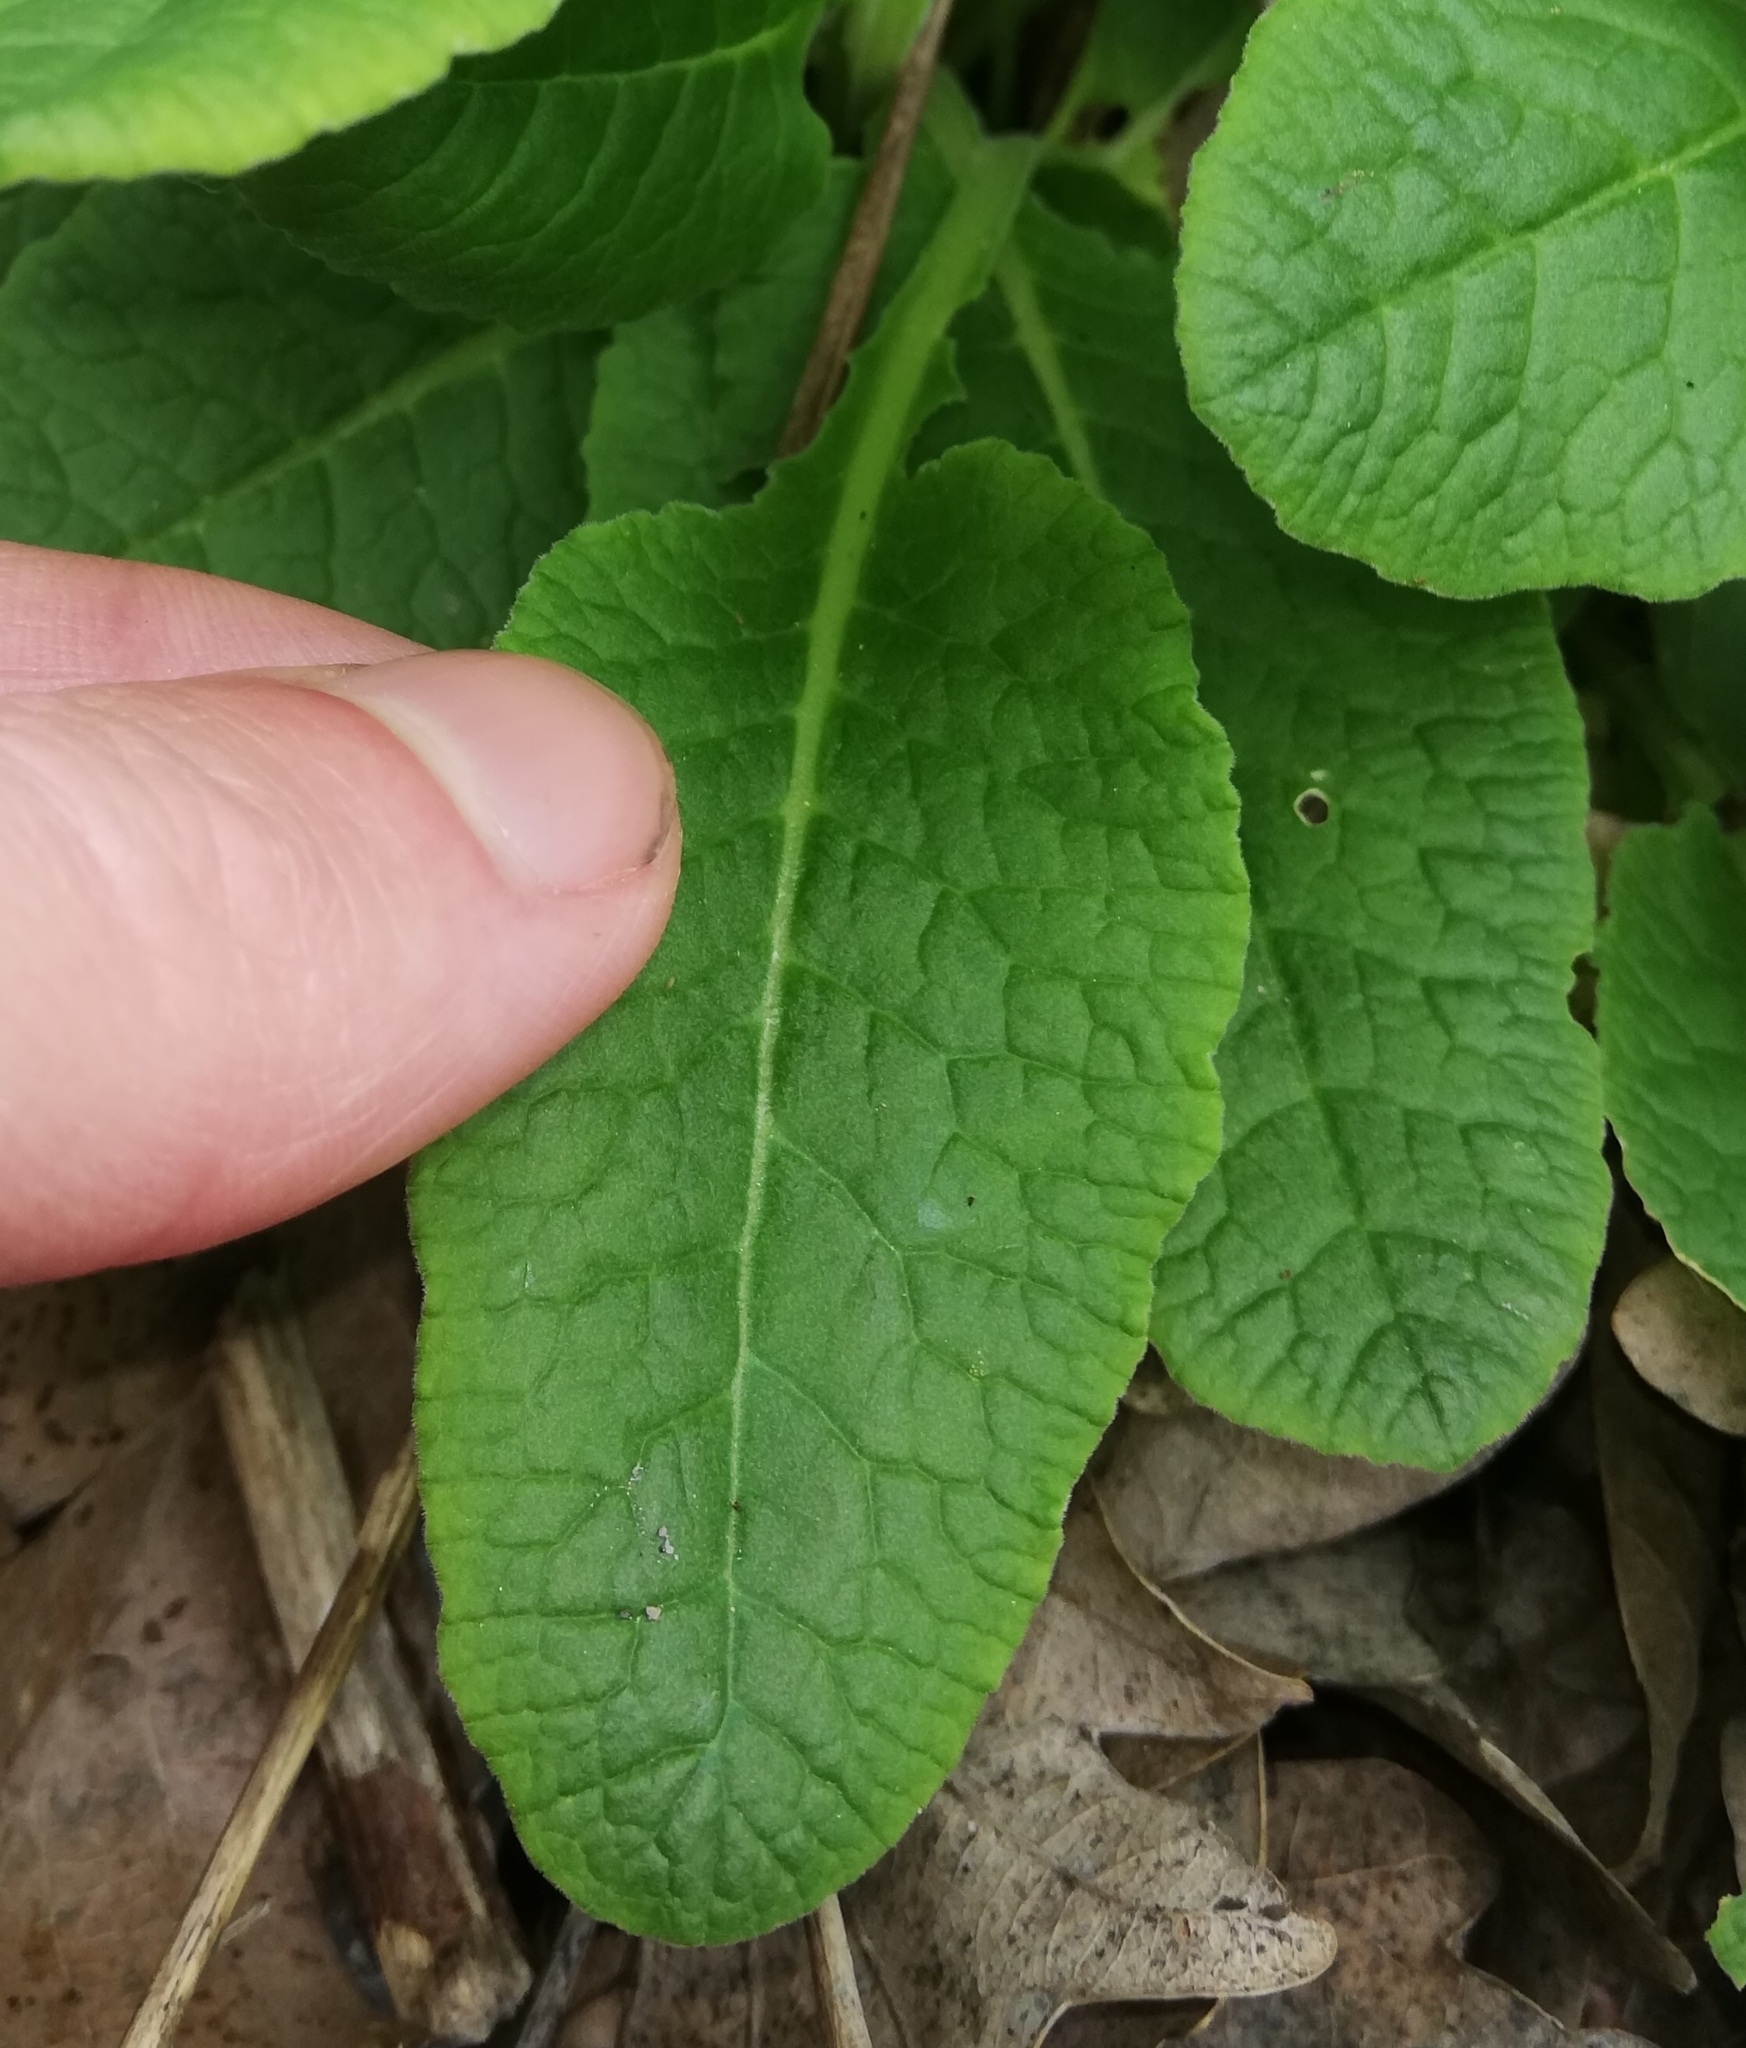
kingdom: Plantae
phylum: Tracheophyta
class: Magnoliopsida
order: Ericales
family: Primulaceae
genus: Primula
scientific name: Primula veris
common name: Cowslip
